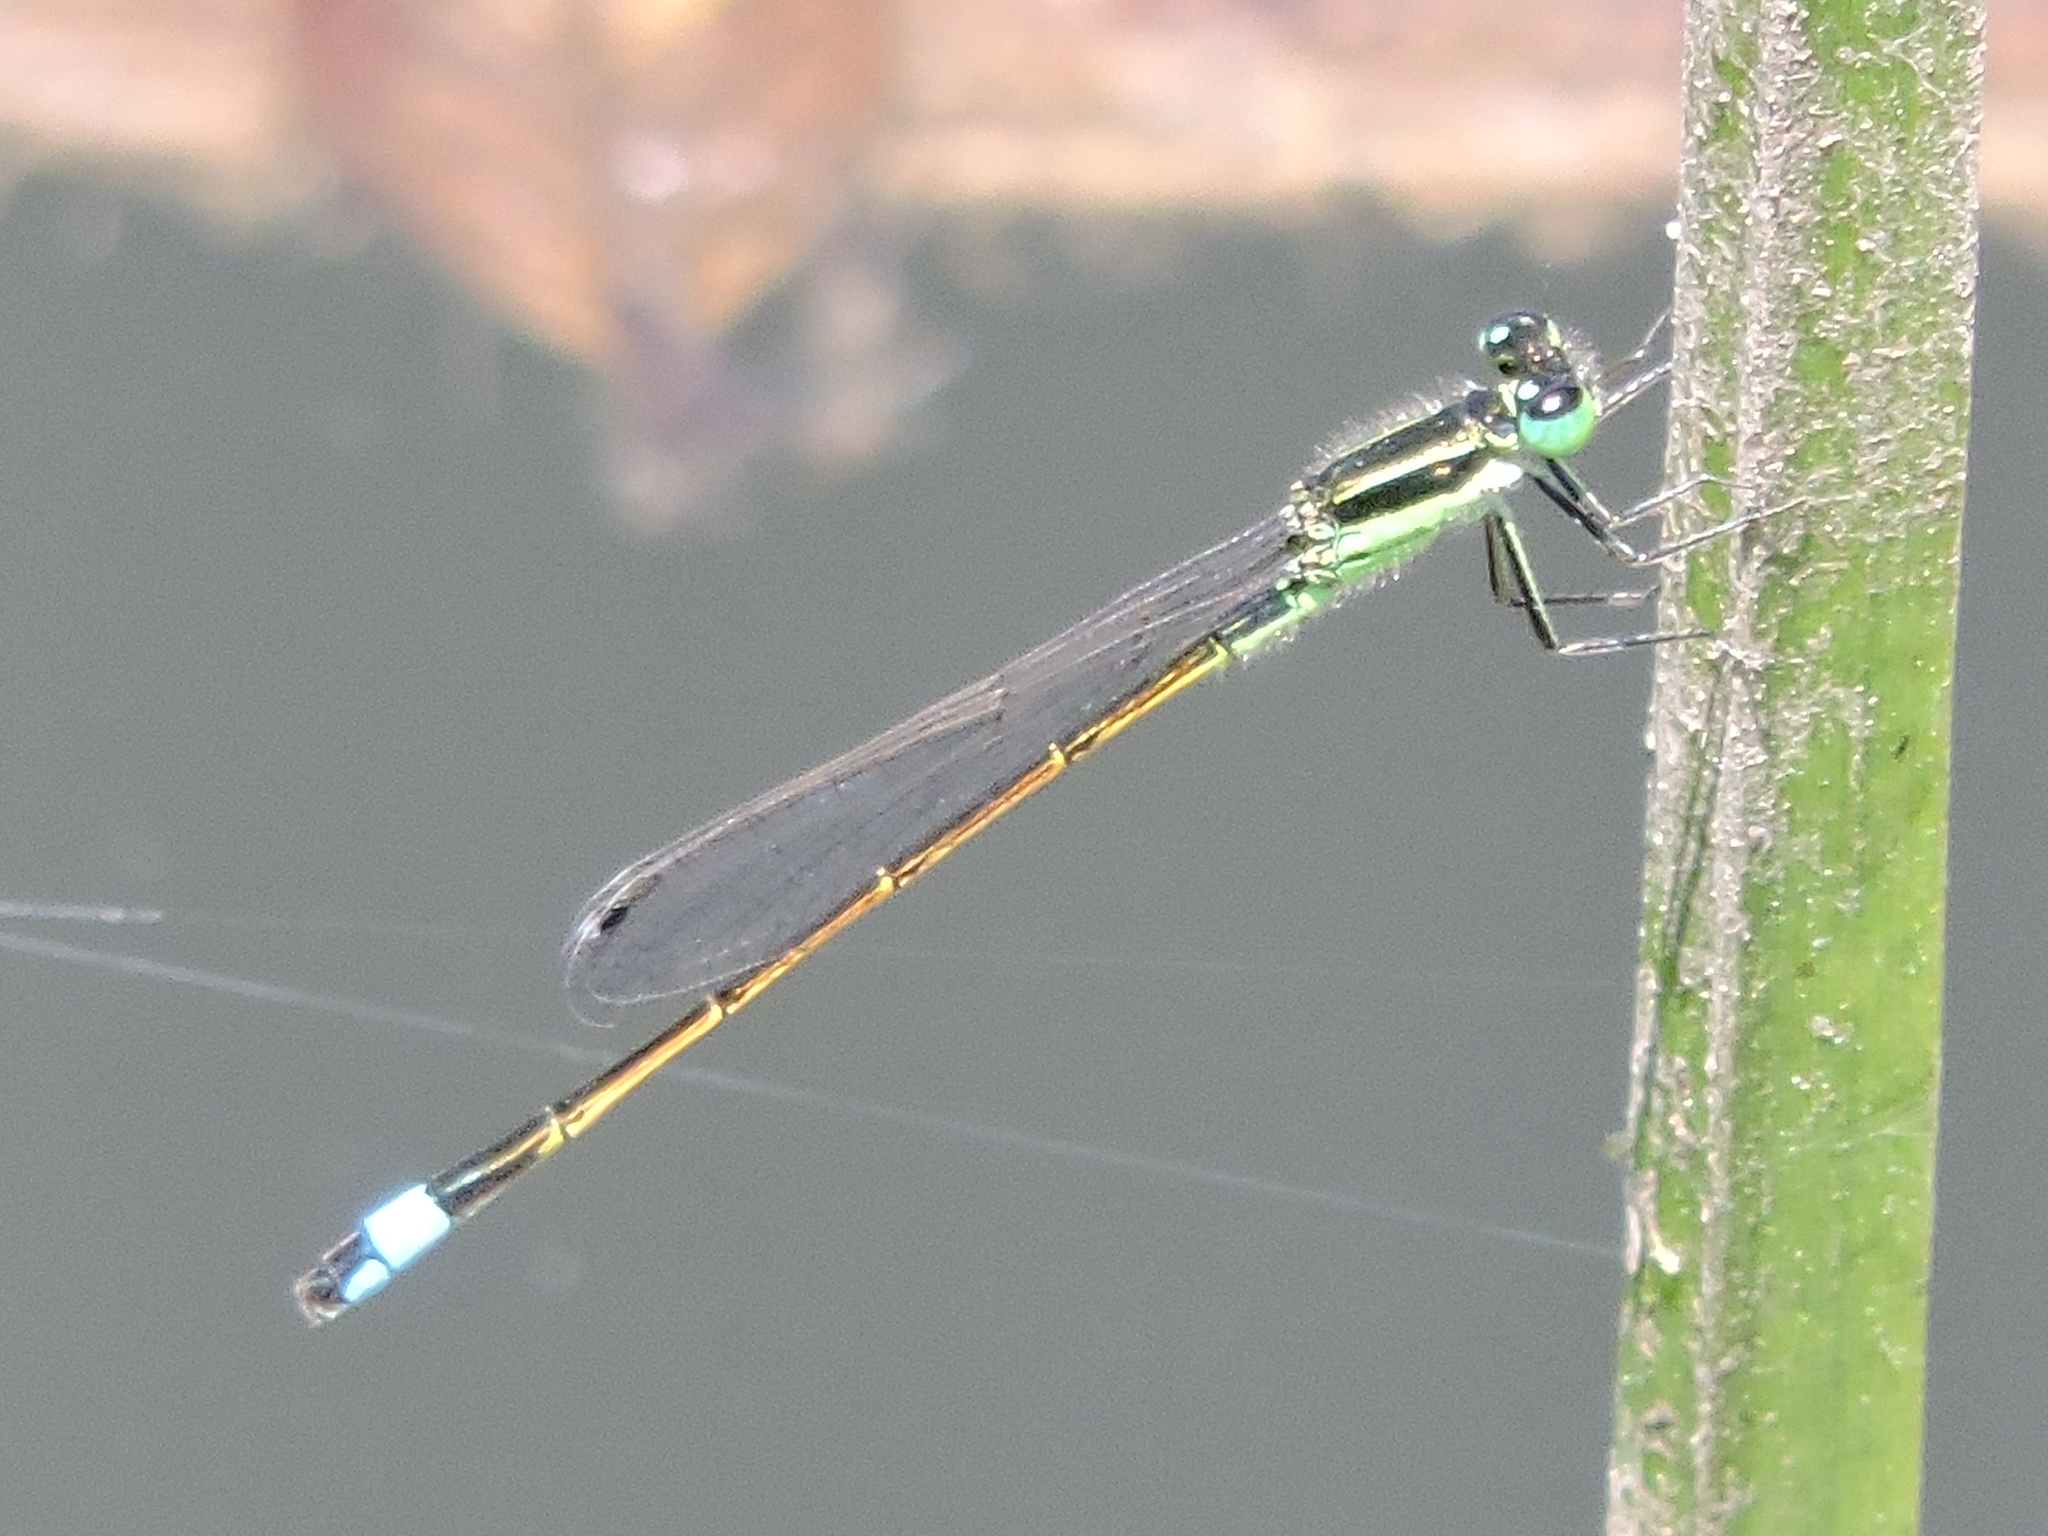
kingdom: Animalia
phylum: Arthropoda
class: Insecta
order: Odonata
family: Coenagrionidae
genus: Ischnura
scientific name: Ischnura ramburii
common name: Rambur's forktail
